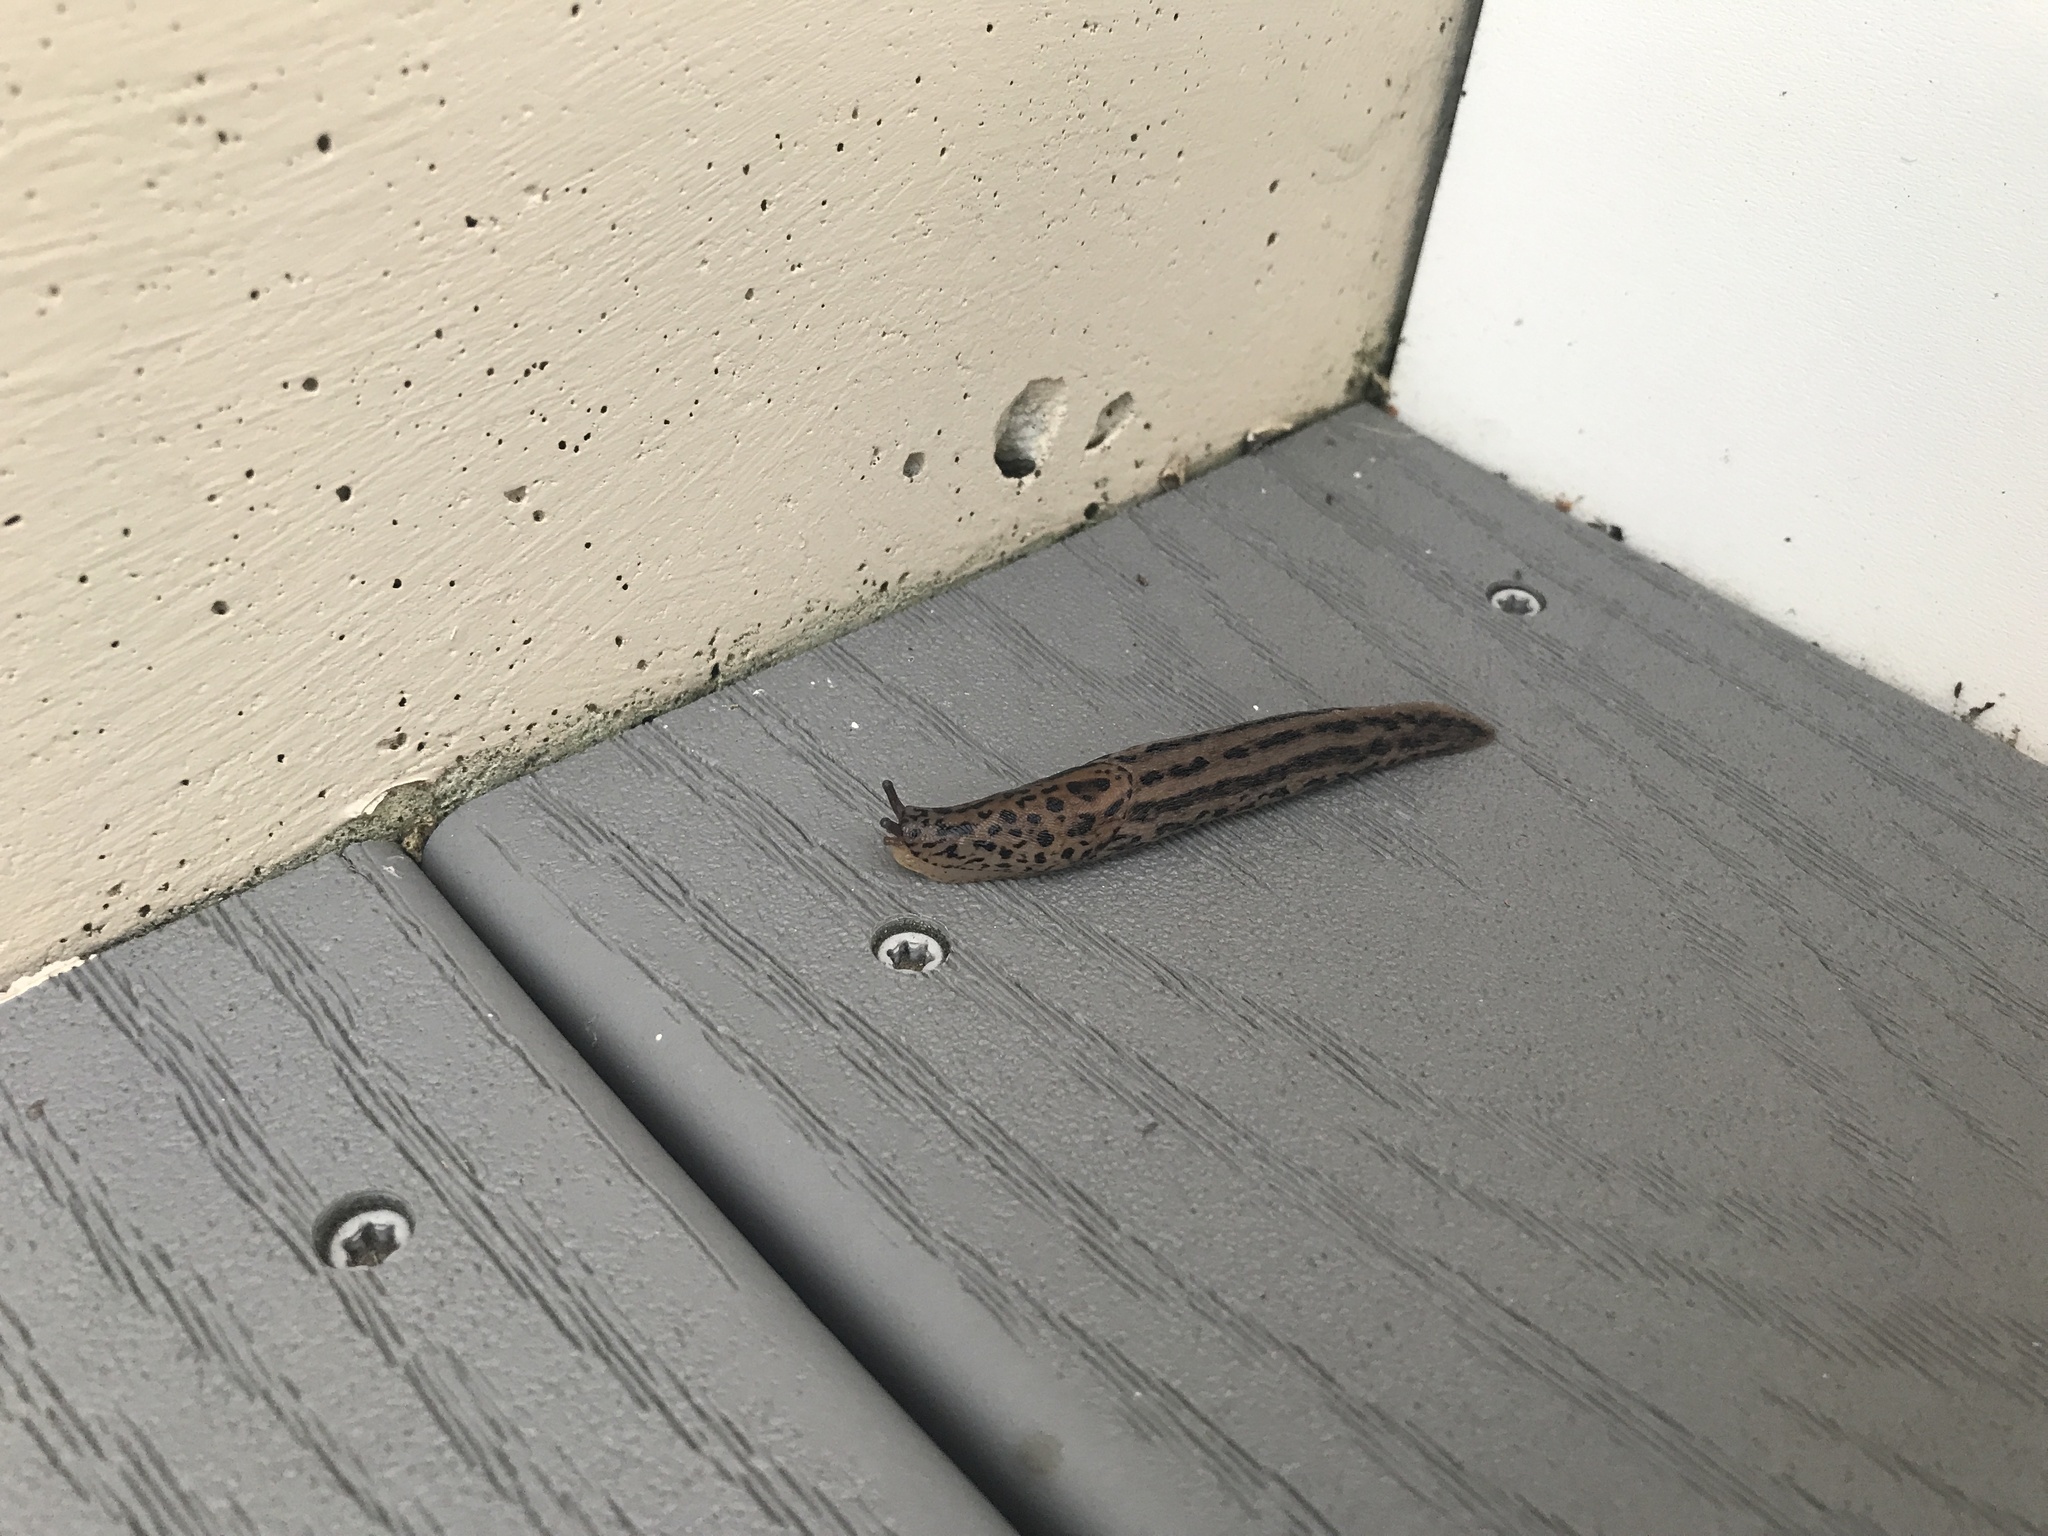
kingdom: Animalia
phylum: Mollusca
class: Gastropoda
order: Stylommatophora
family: Limacidae
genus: Limax
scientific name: Limax maximus
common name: Great grey slug
